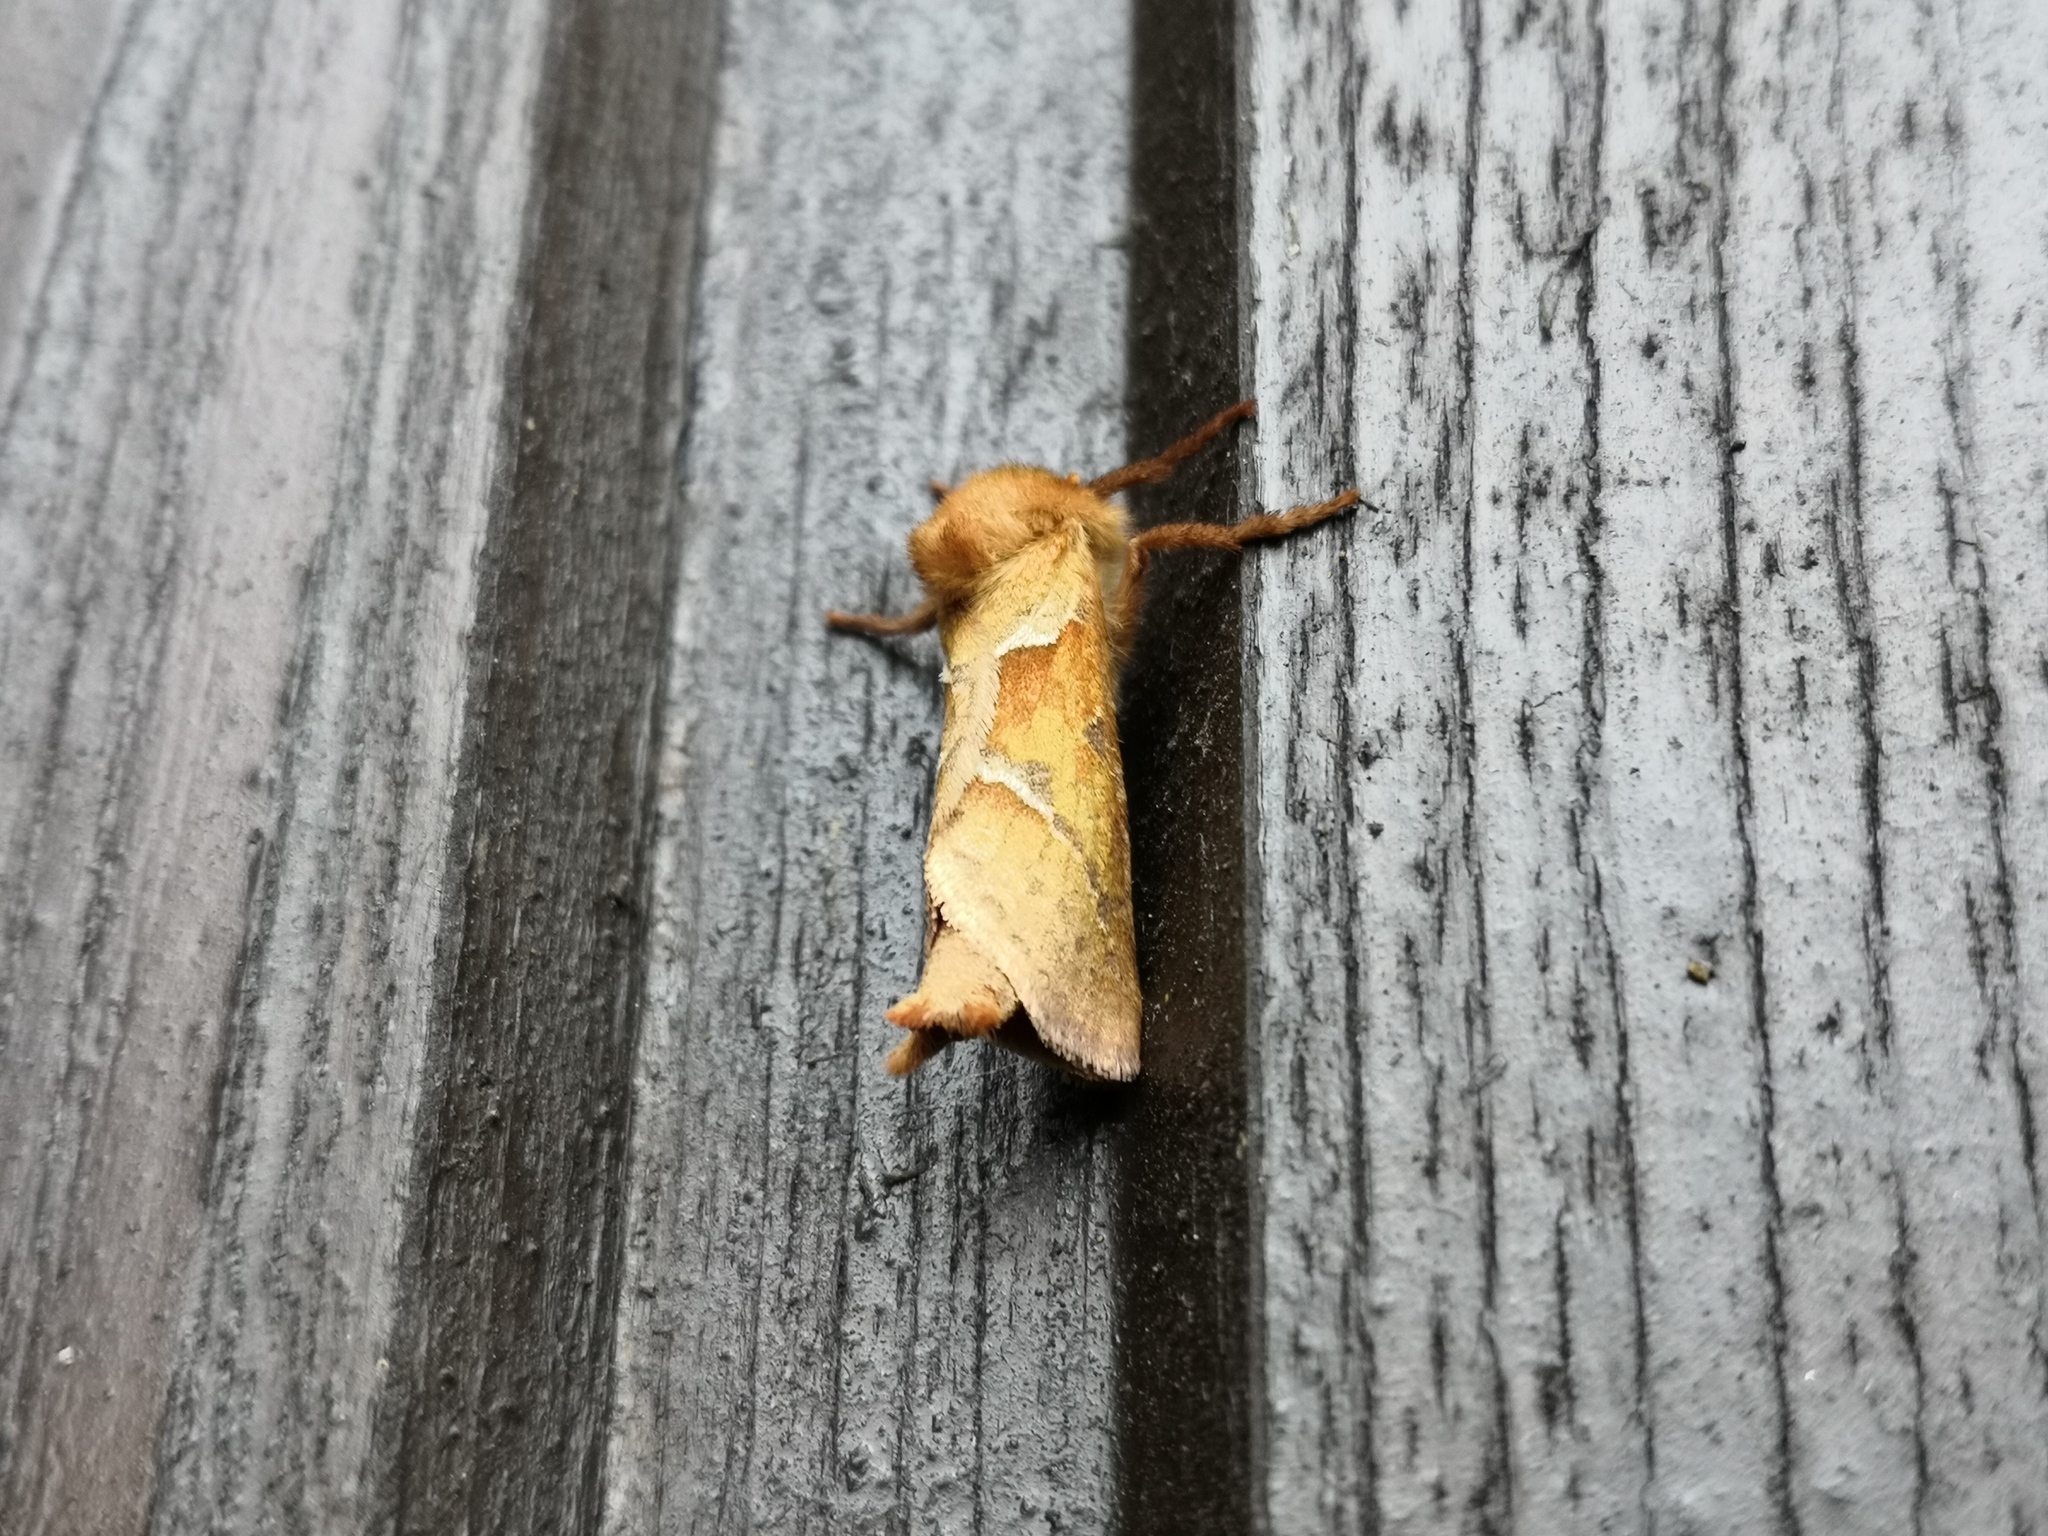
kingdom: Animalia
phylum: Arthropoda
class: Insecta
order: Lepidoptera
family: Hepialidae
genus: Triodia
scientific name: Triodia sylvina
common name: Orange swift
